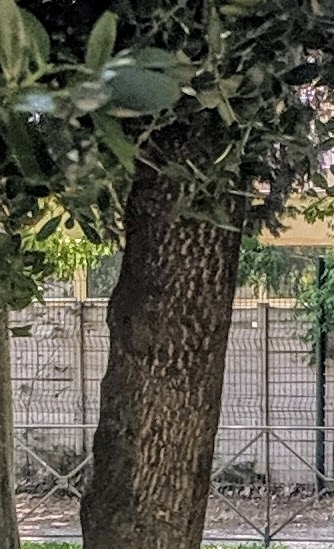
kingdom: Plantae
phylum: Tracheophyta
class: Magnoliopsida
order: Lamiales
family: Oleaceae
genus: Olea
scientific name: Olea europaea
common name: Olive
